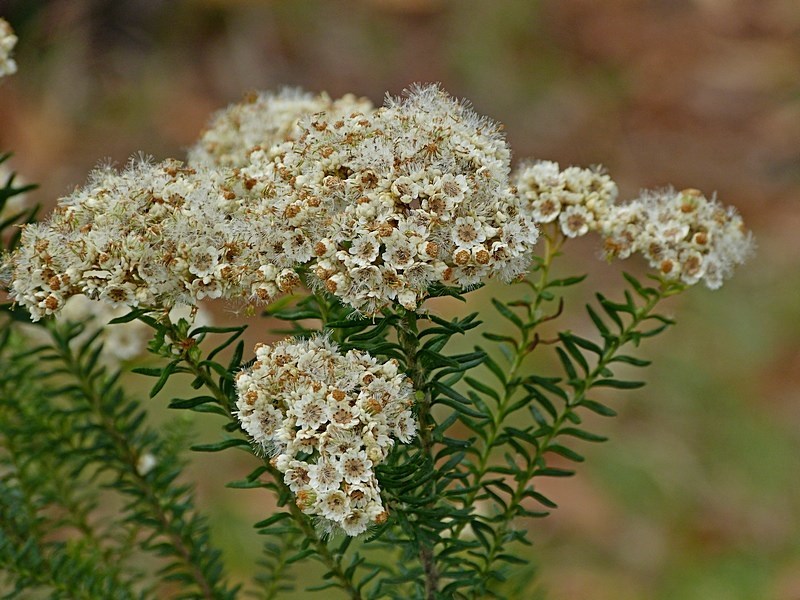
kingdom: Plantae
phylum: Tracheophyta
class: Magnoliopsida
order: Asterales
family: Asteraceae
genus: Ozothamnus
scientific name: Ozothamnus diosmifolius
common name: White-dogwood
